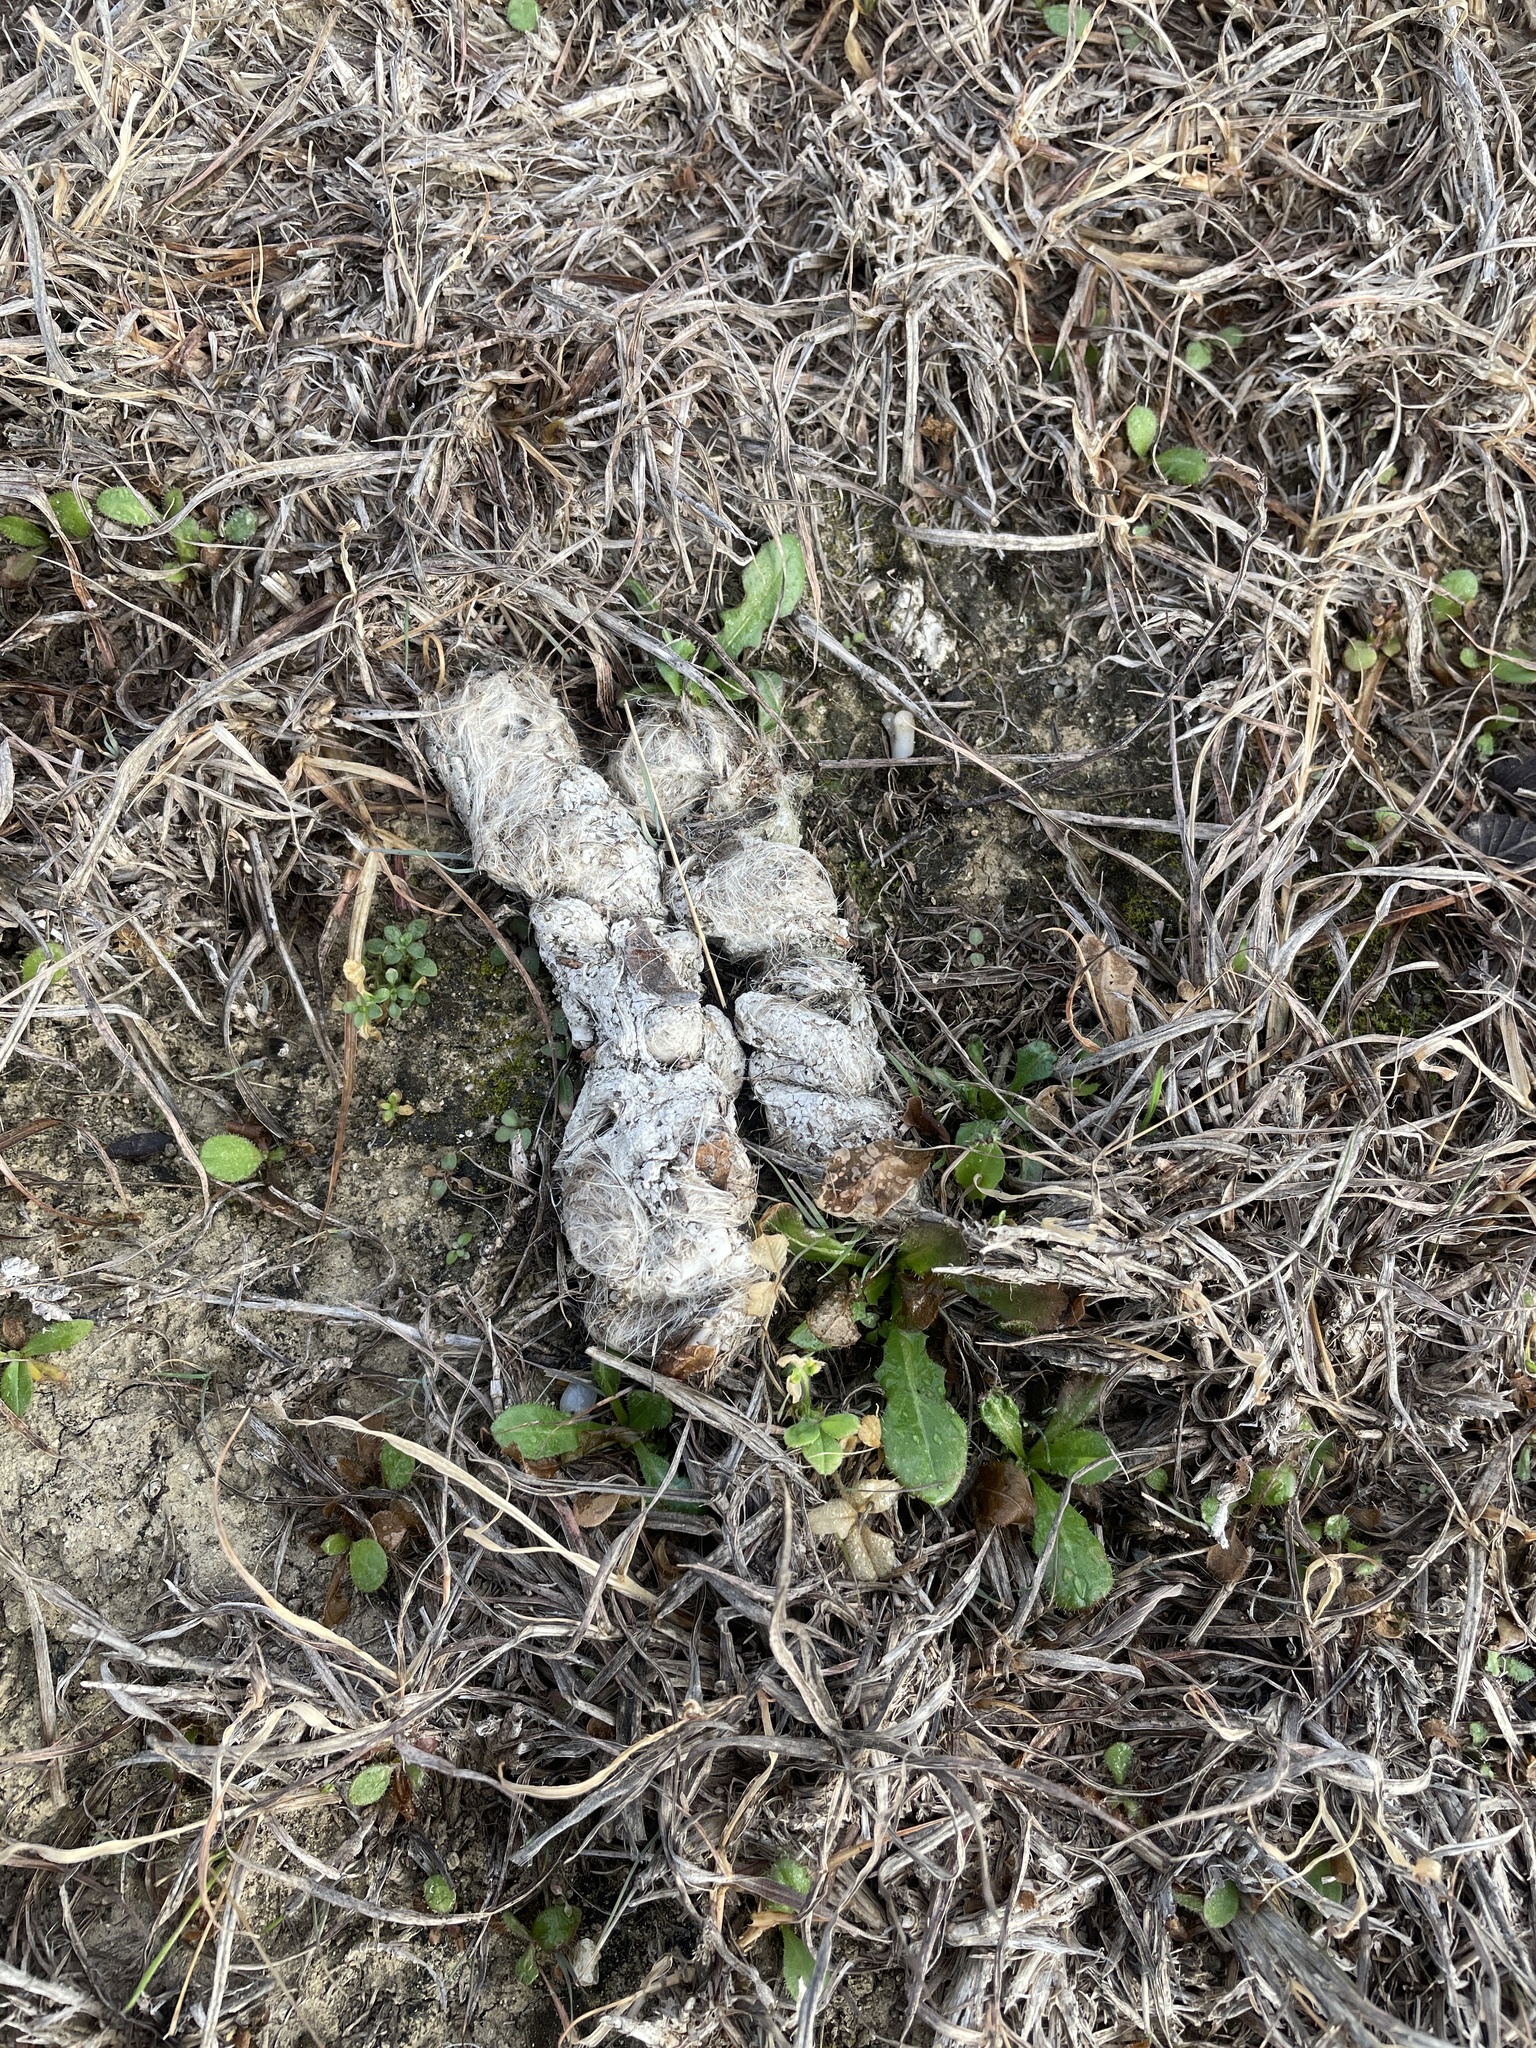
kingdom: Animalia
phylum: Chordata
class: Mammalia
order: Carnivora
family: Canidae
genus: Canis
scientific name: Canis latrans
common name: Coyote
